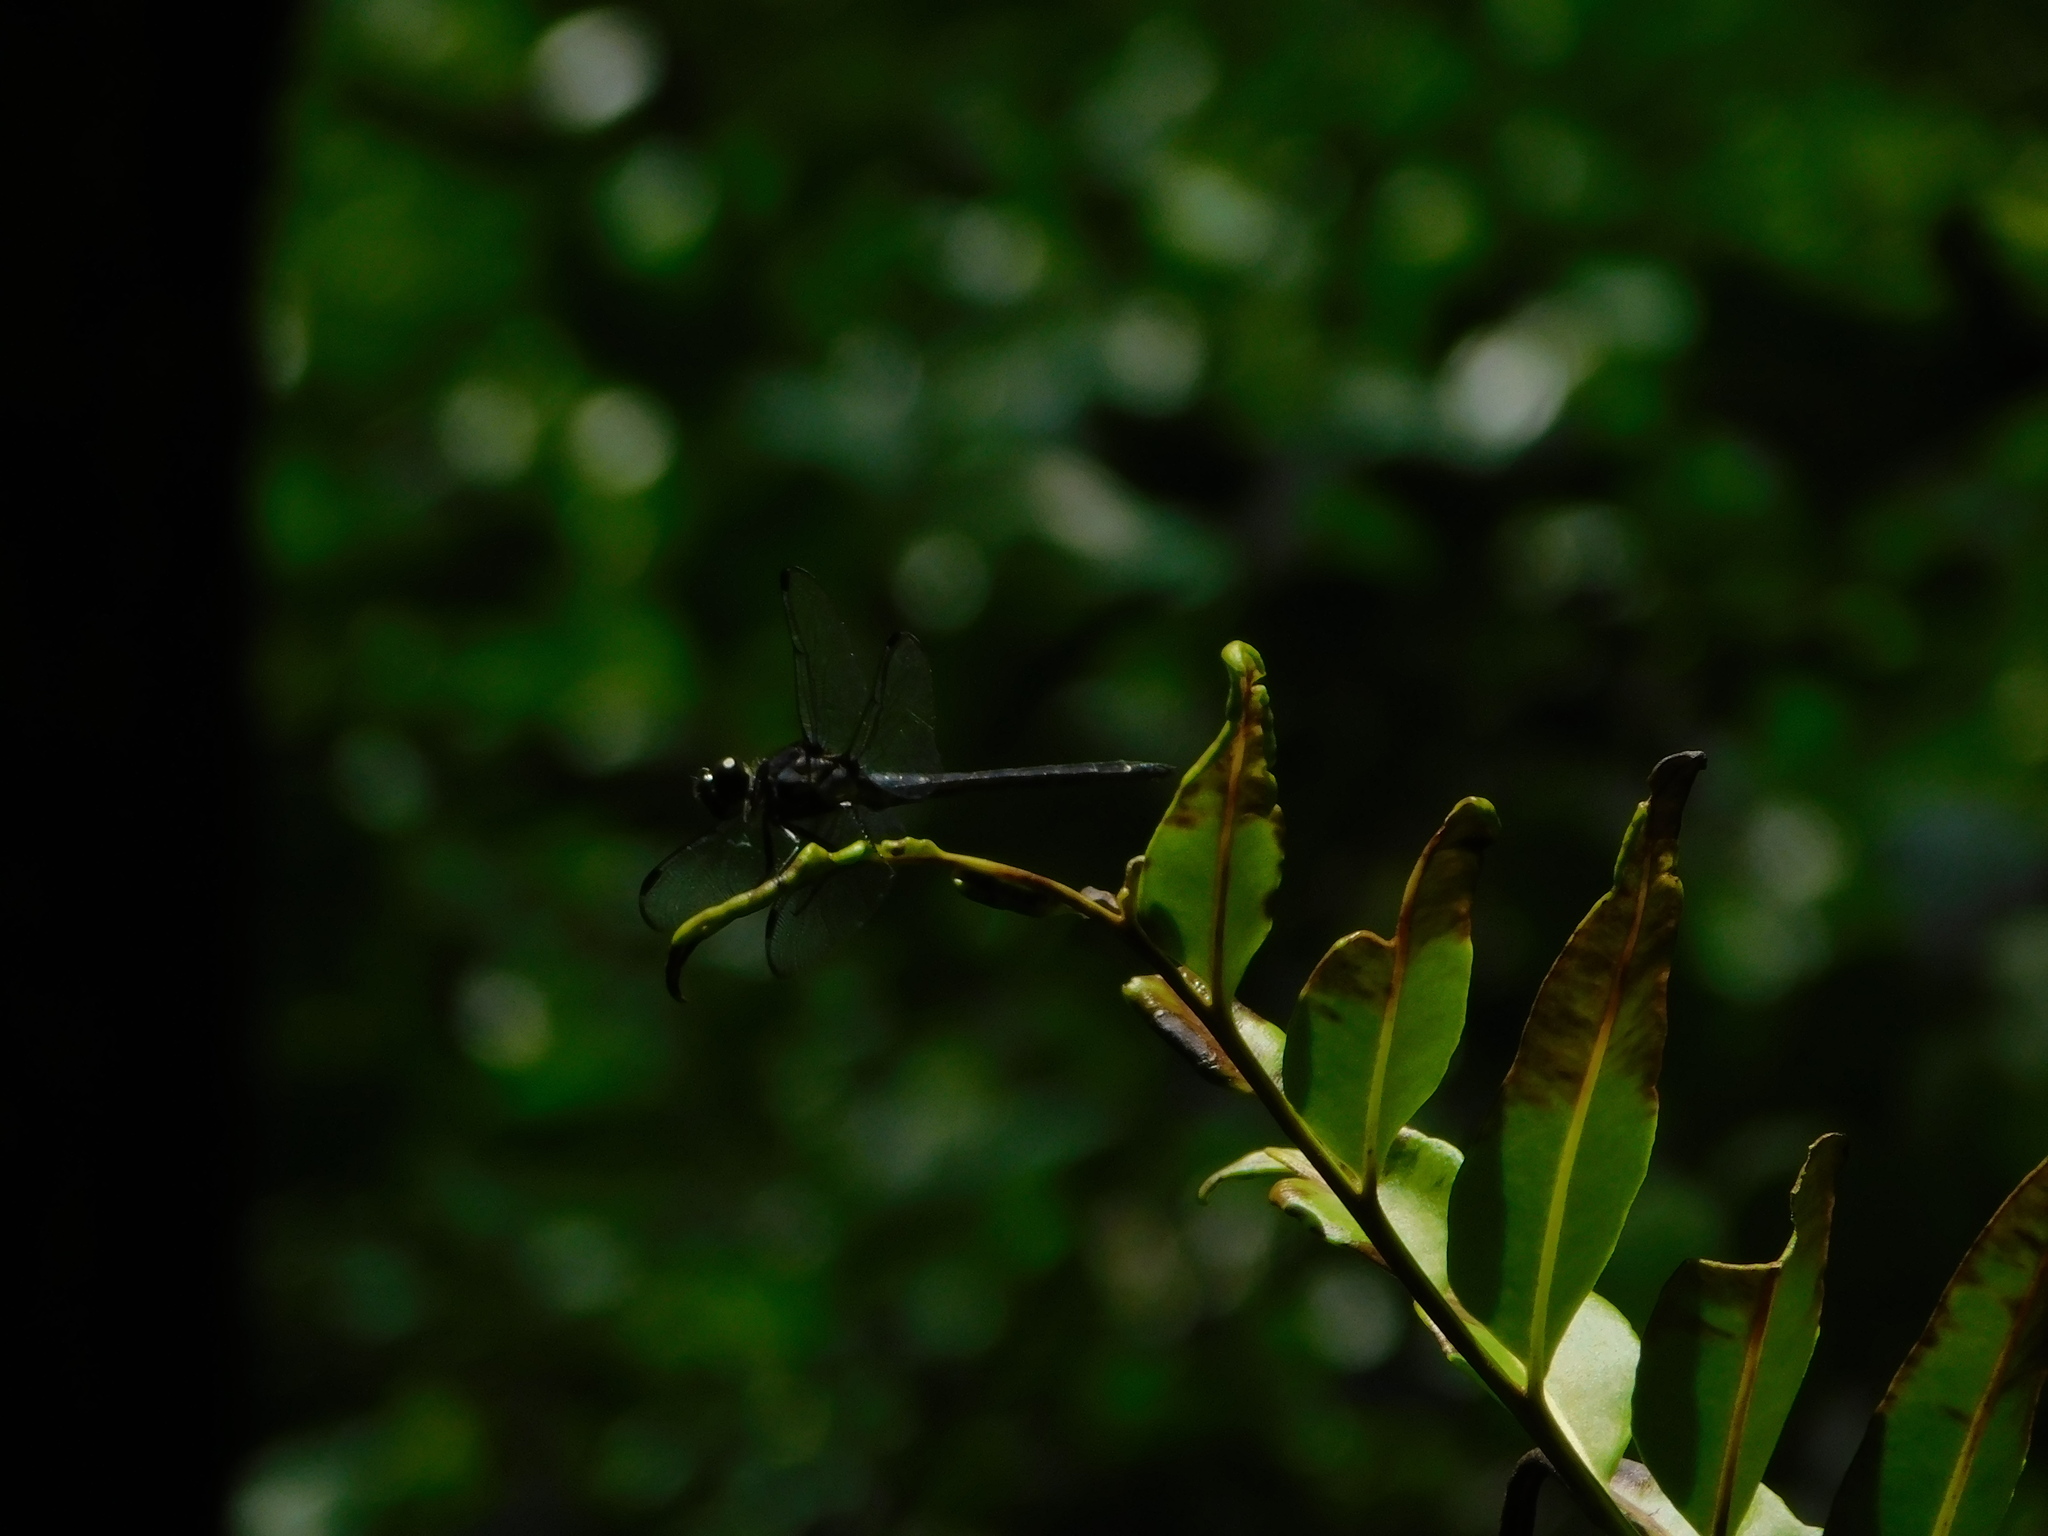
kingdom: Animalia
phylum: Arthropoda
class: Insecta
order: Odonata
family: Libellulidae
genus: Libellula
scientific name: Libellula incesta
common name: Slaty skimmer
